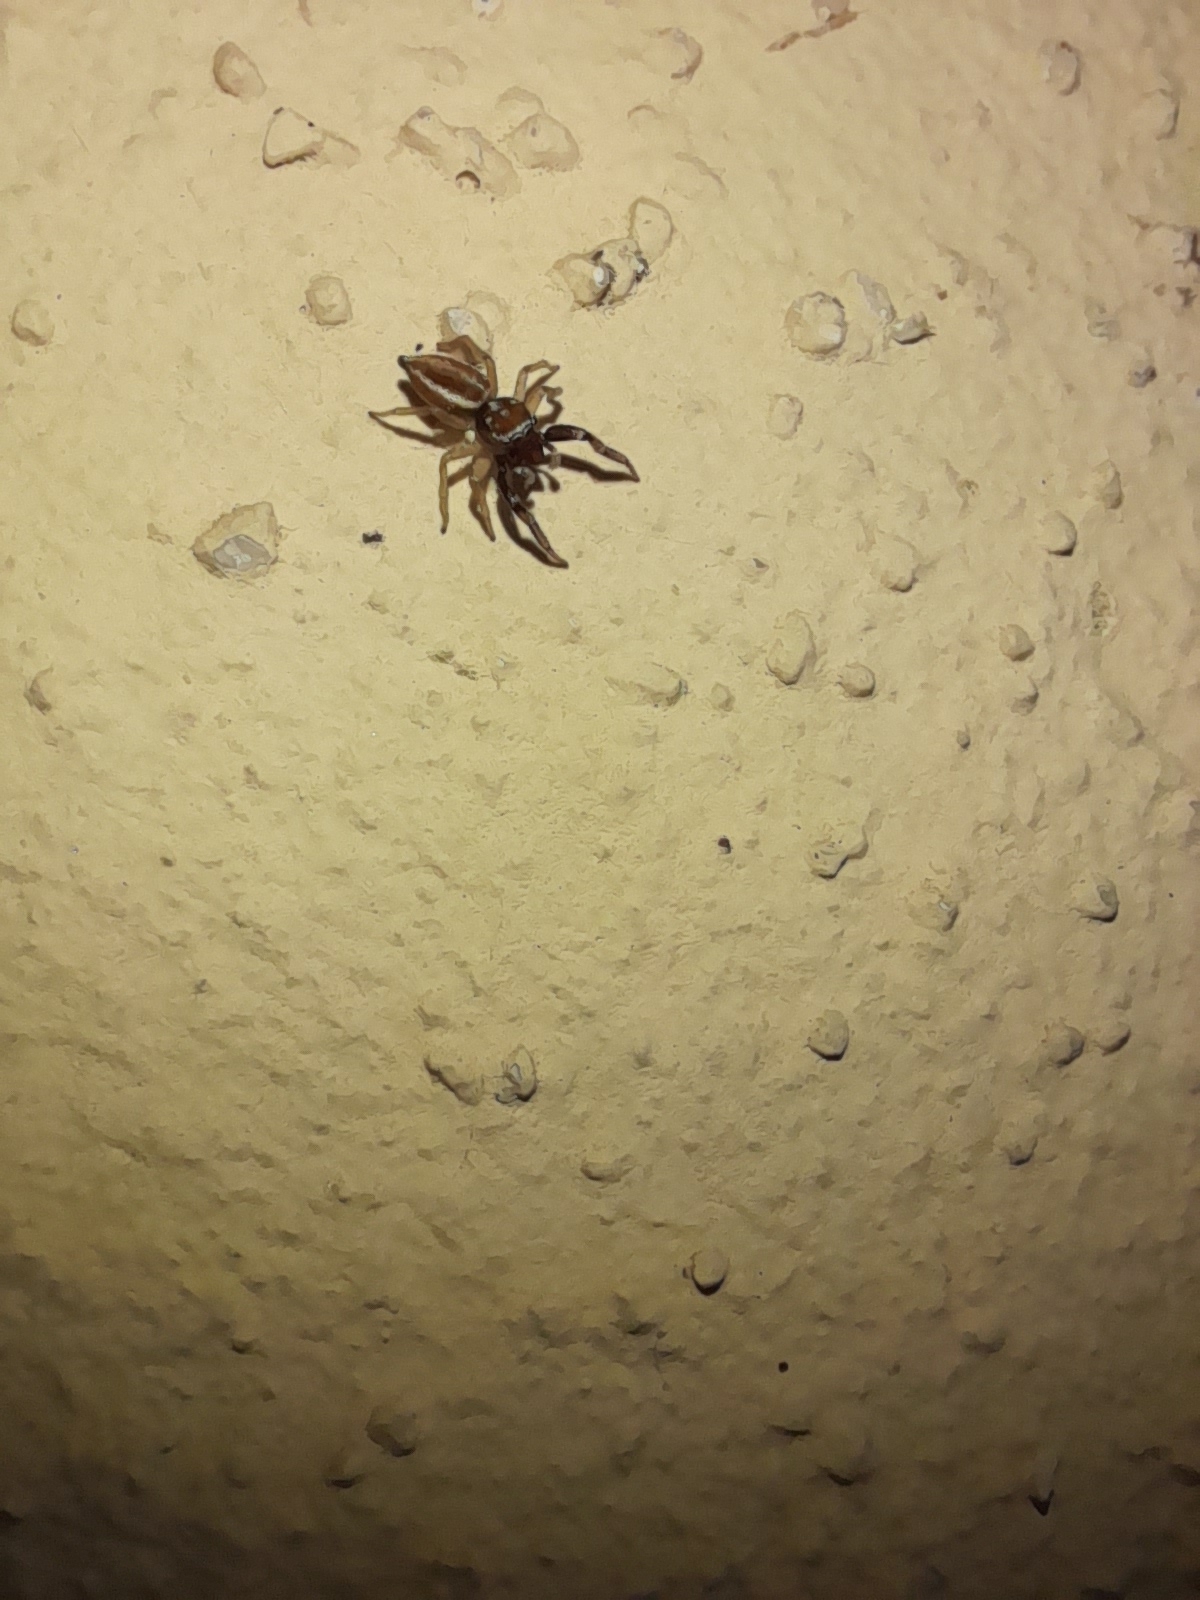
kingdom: Animalia
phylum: Arthropoda
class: Arachnida
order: Araneae
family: Salticidae
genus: Icius
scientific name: Icius hamatus
